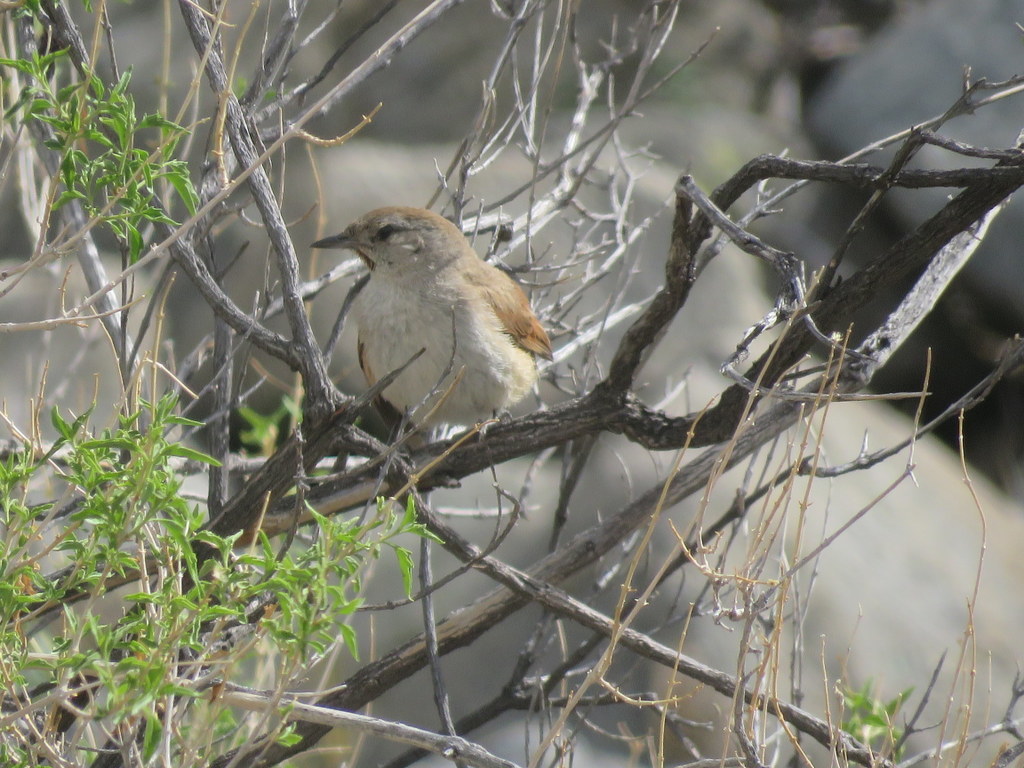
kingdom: Animalia
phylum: Chordata
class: Aves
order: Passeriformes
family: Furnariidae
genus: Asthenes
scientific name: Asthenes dorbignyi
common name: Rusty-vented canastero
